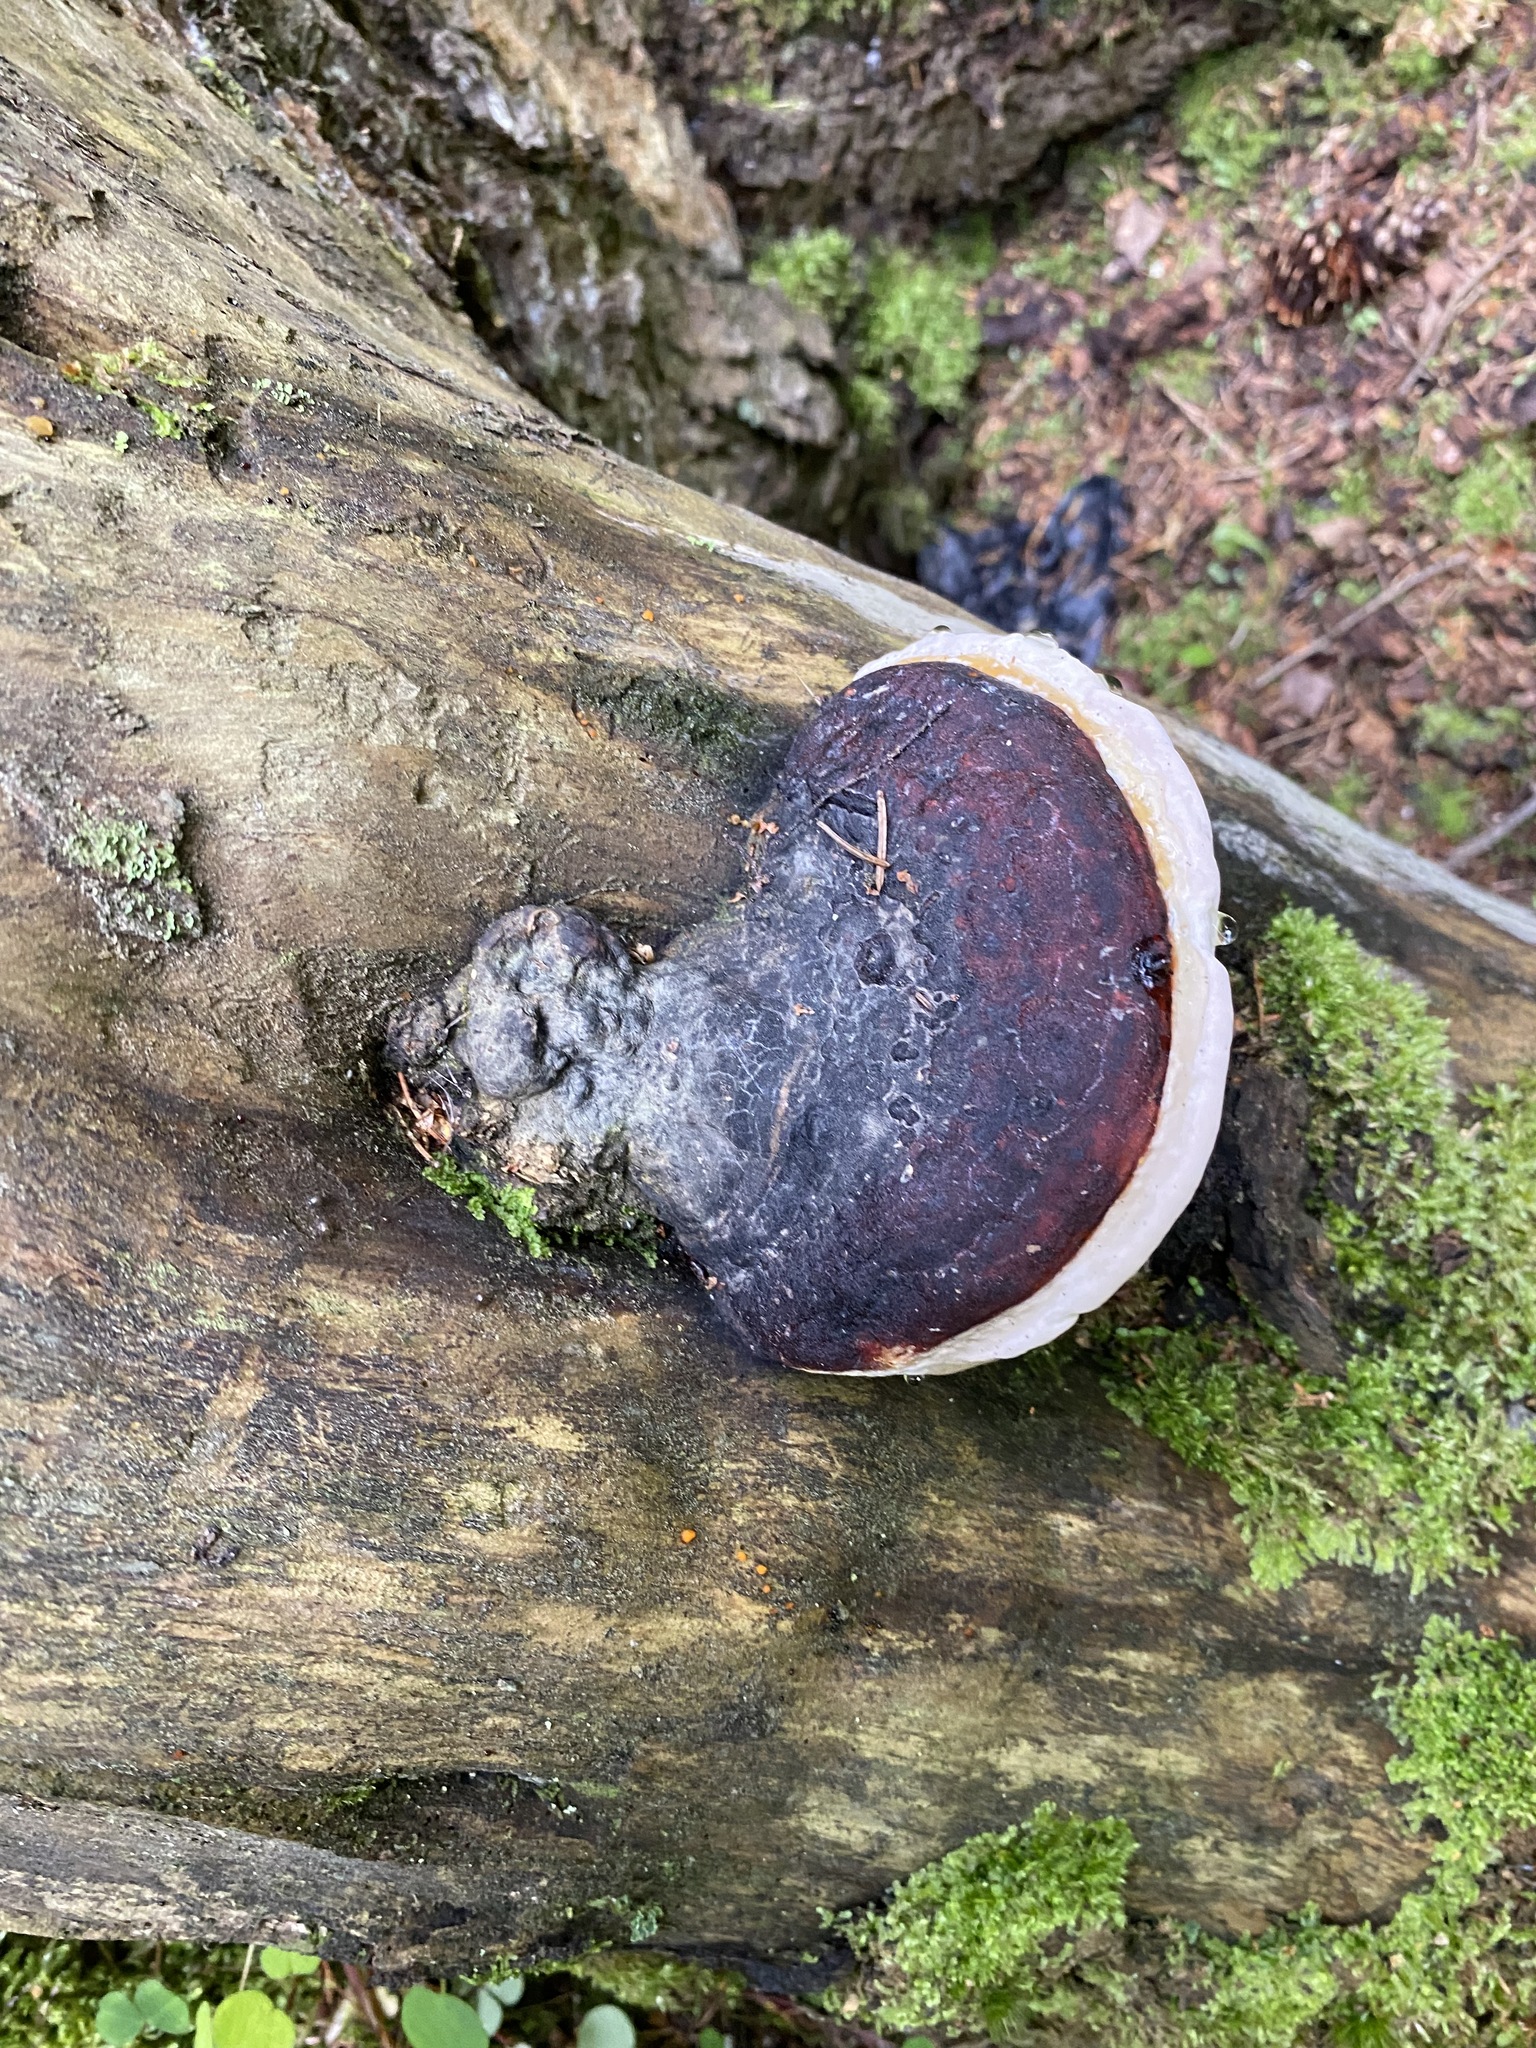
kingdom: Fungi
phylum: Basidiomycota
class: Agaricomycetes
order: Polyporales
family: Fomitopsidaceae
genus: Fomitopsis
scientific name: Fomitopsis pinicola
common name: Red-belted bracket
